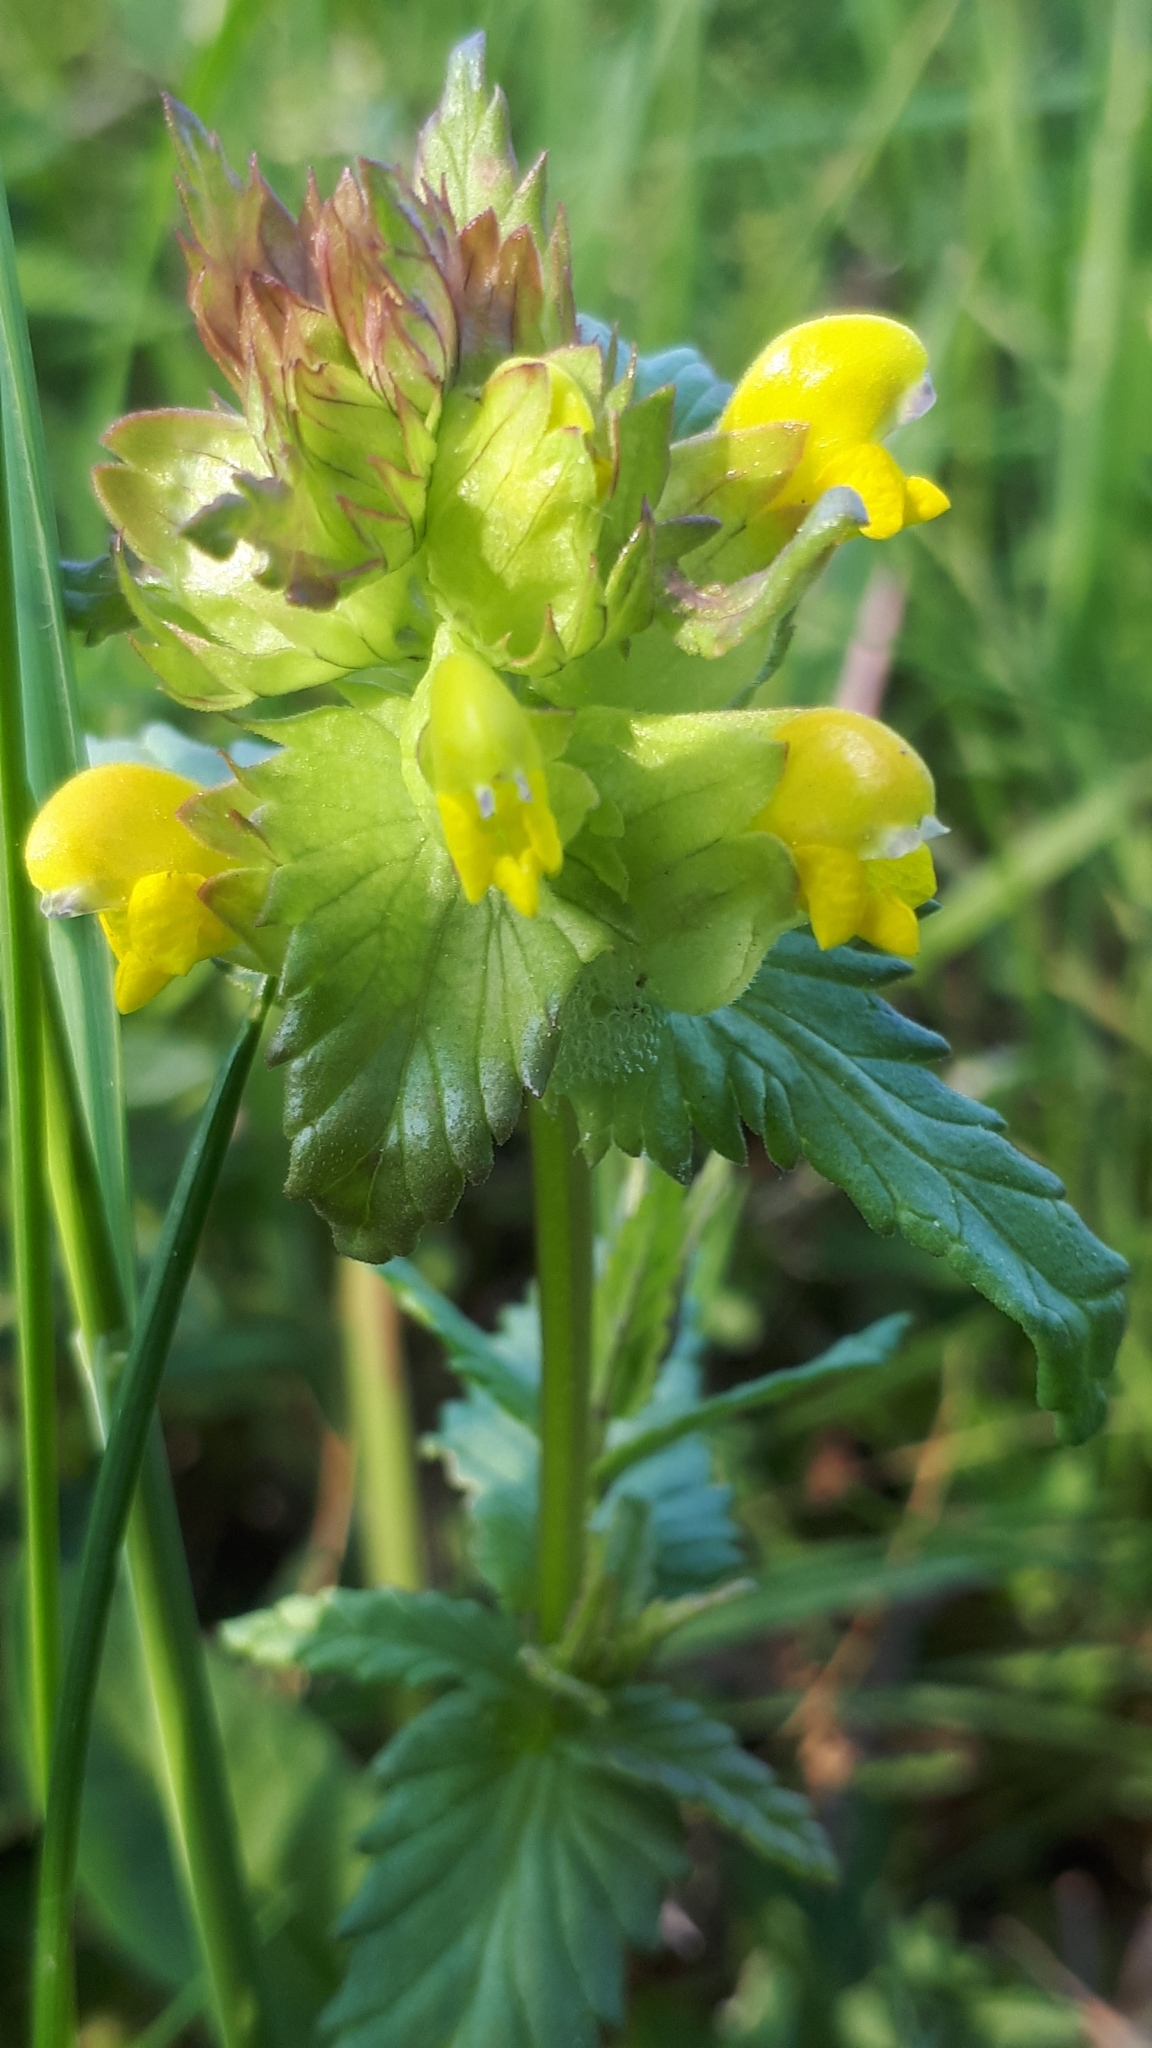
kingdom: Plantae
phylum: Tracheophyta
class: Magnoliopsida
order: Lamiales
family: Orobanchaceae
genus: Rhinanthus
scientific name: Rhinanthus minor
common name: Yellow-rattle
